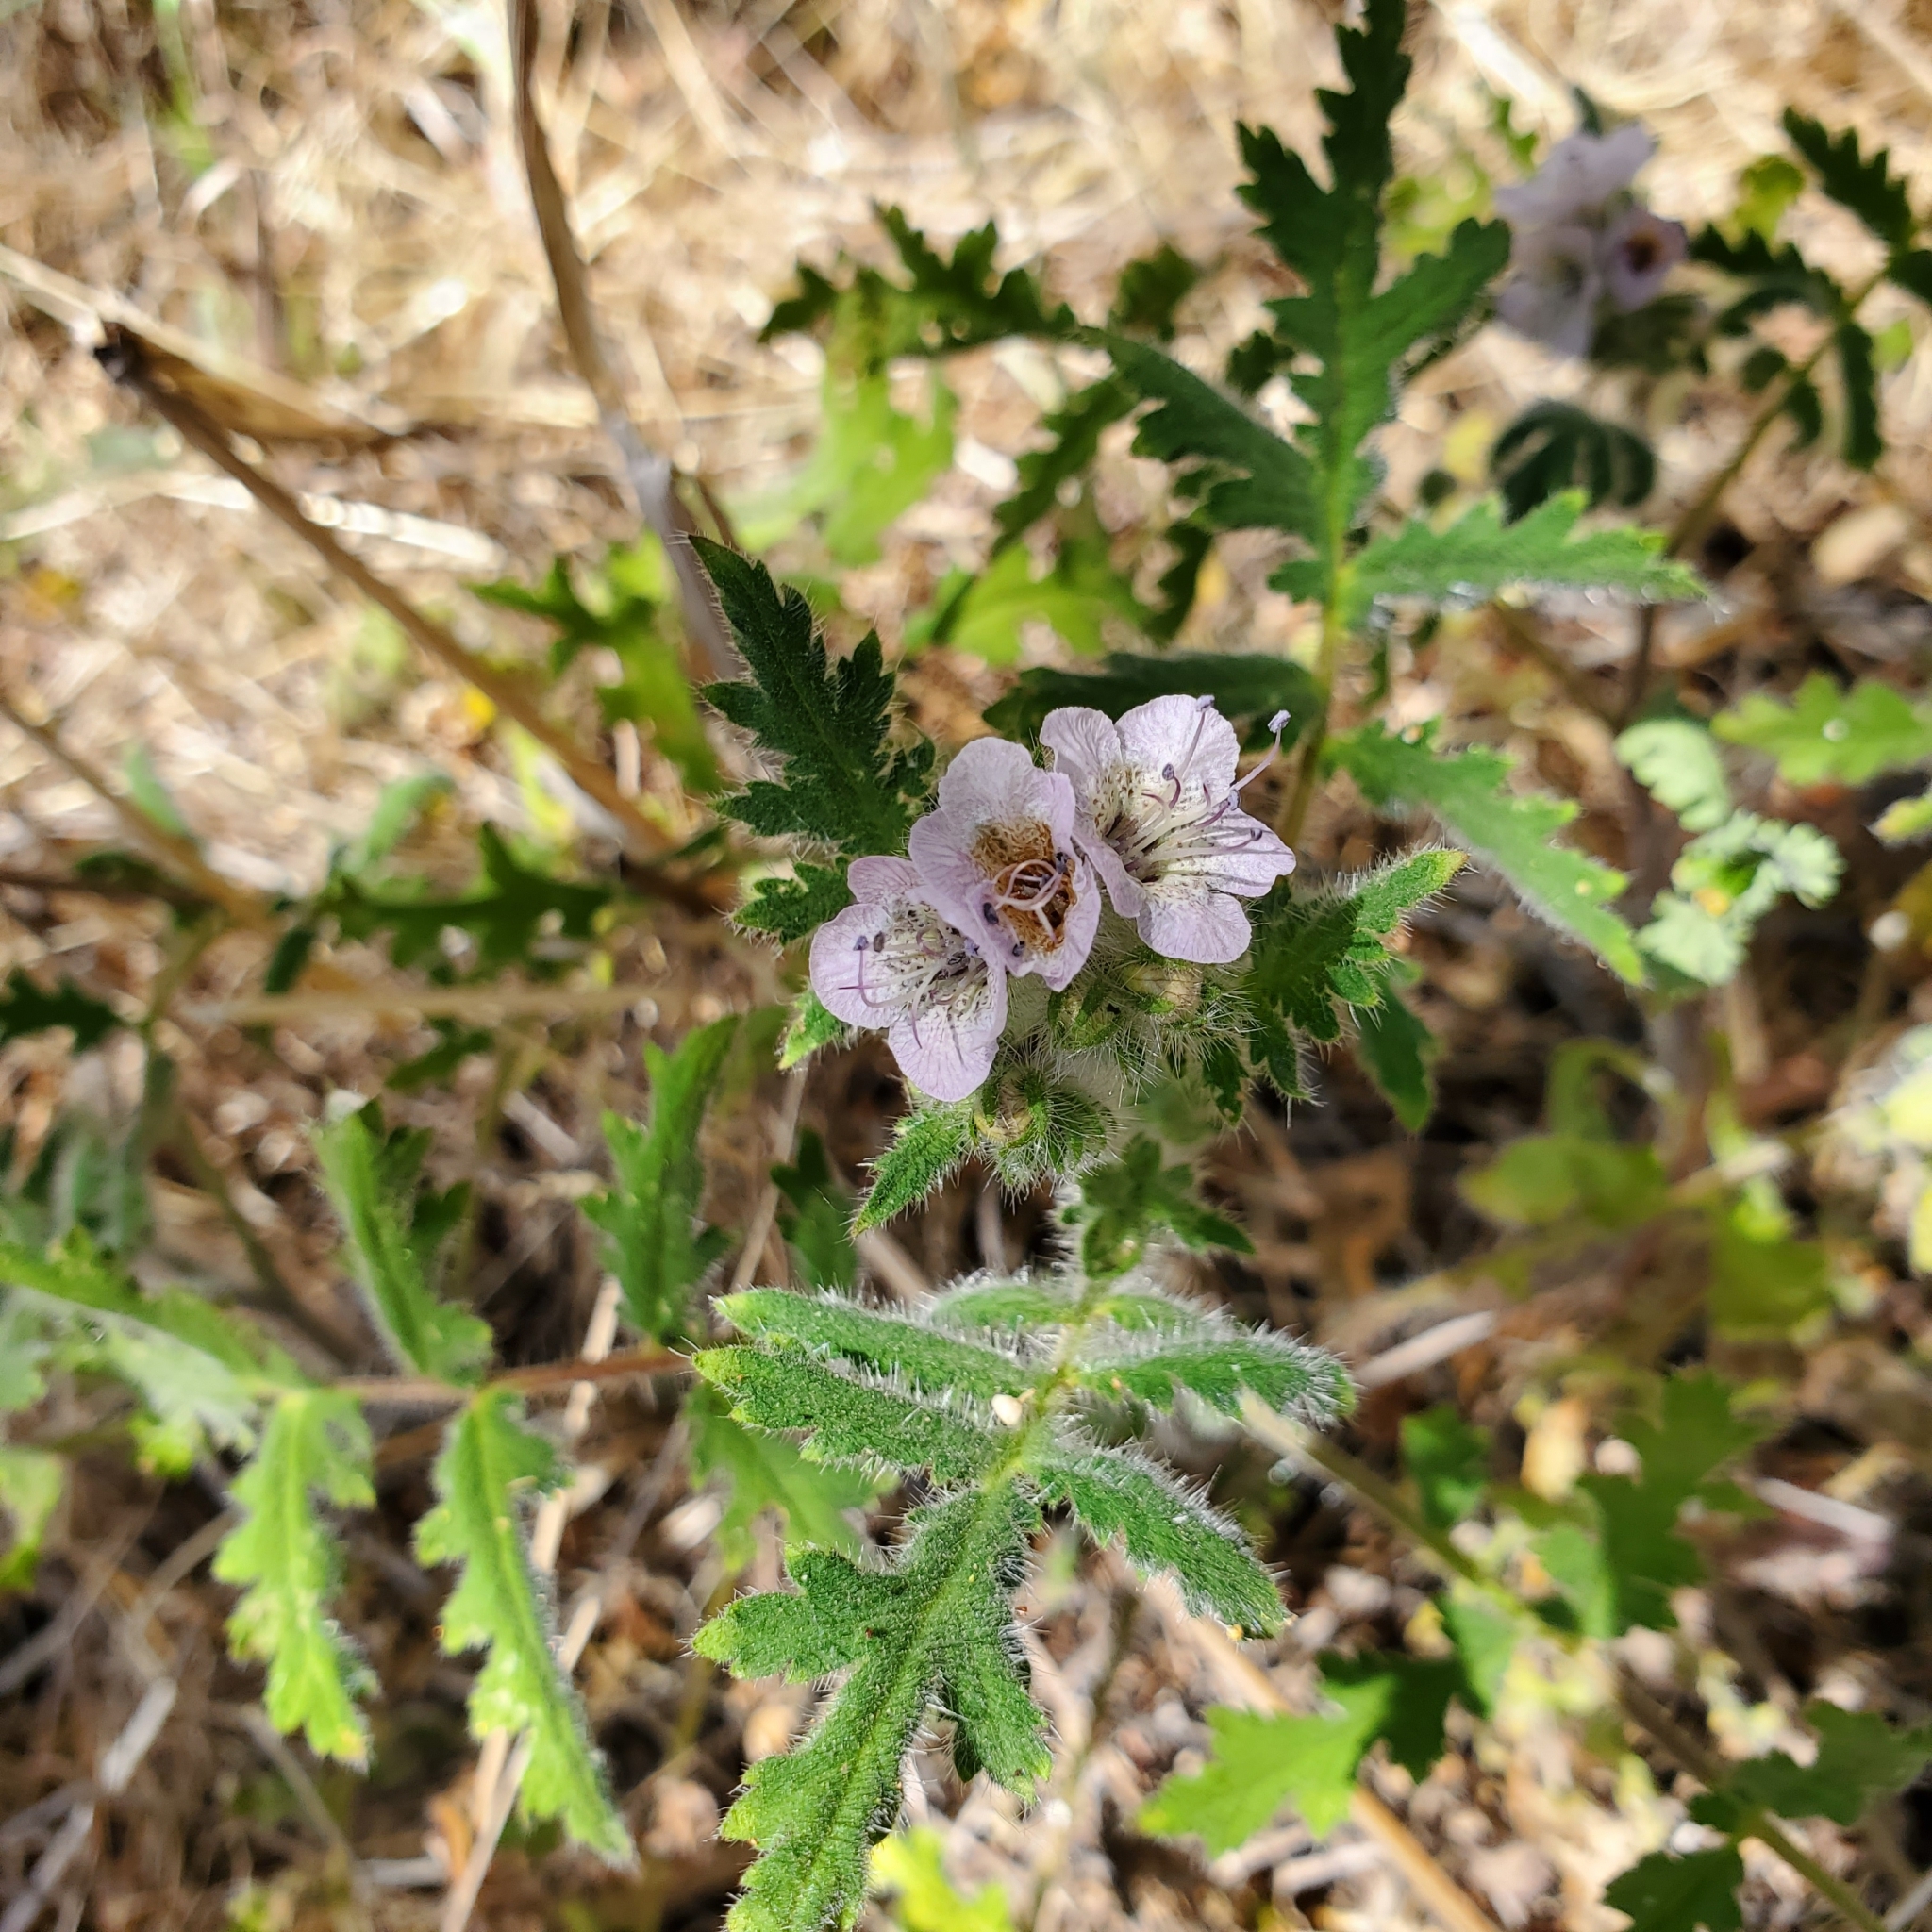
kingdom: Plantae
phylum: Tracheophyta
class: Magnoliopsida
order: Boraginales
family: Hydrophyllaceae
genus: Phacelia
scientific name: Phacelia cicutaria
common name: Caterpillar phacelia
